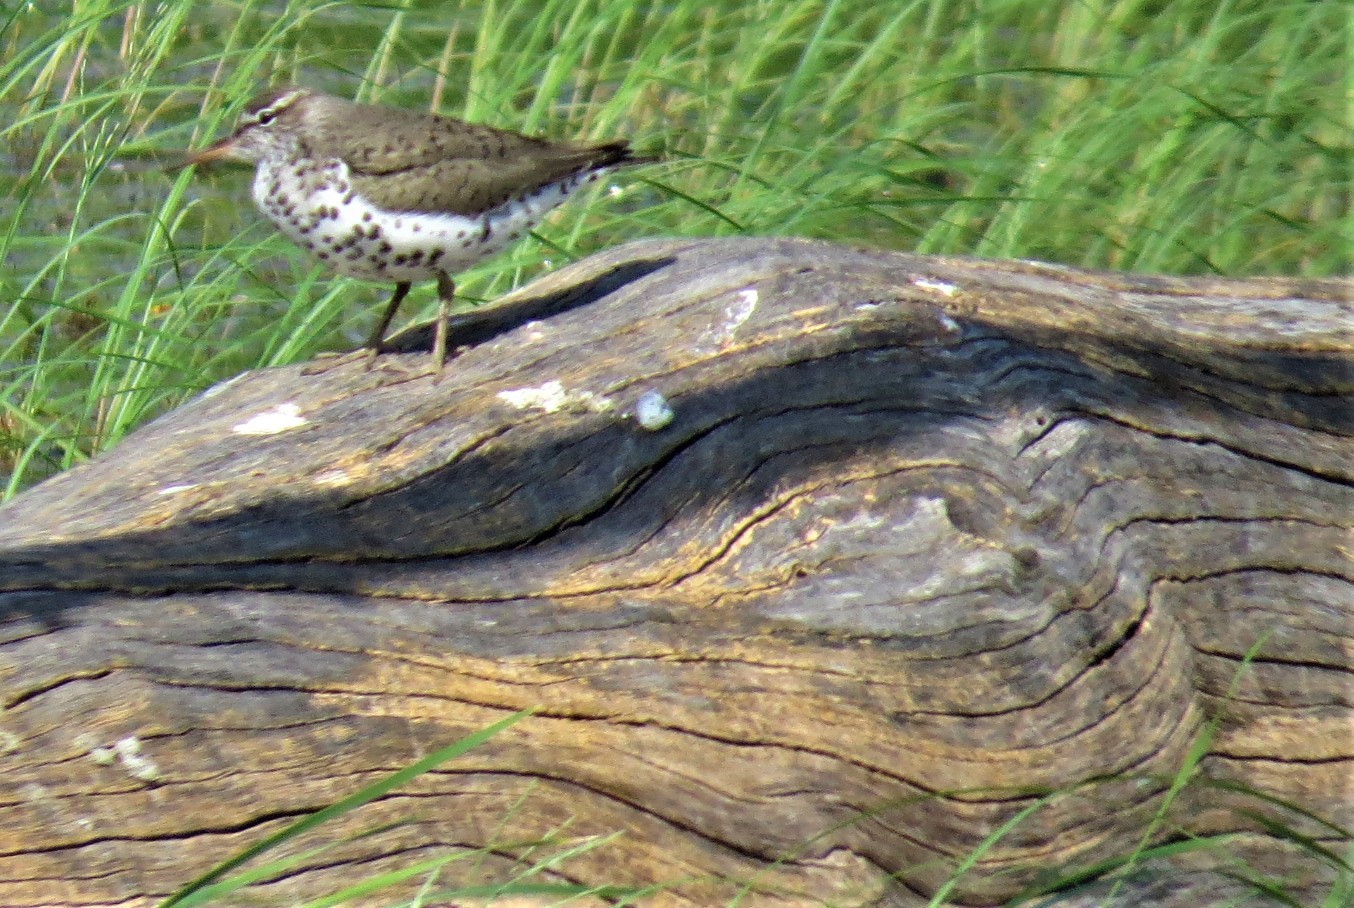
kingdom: Animalia
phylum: Chordata
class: Aves
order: Charadriiformes
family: Scolopacidae
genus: Actitis
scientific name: Actitis macularius
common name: Spotted sandpiper
